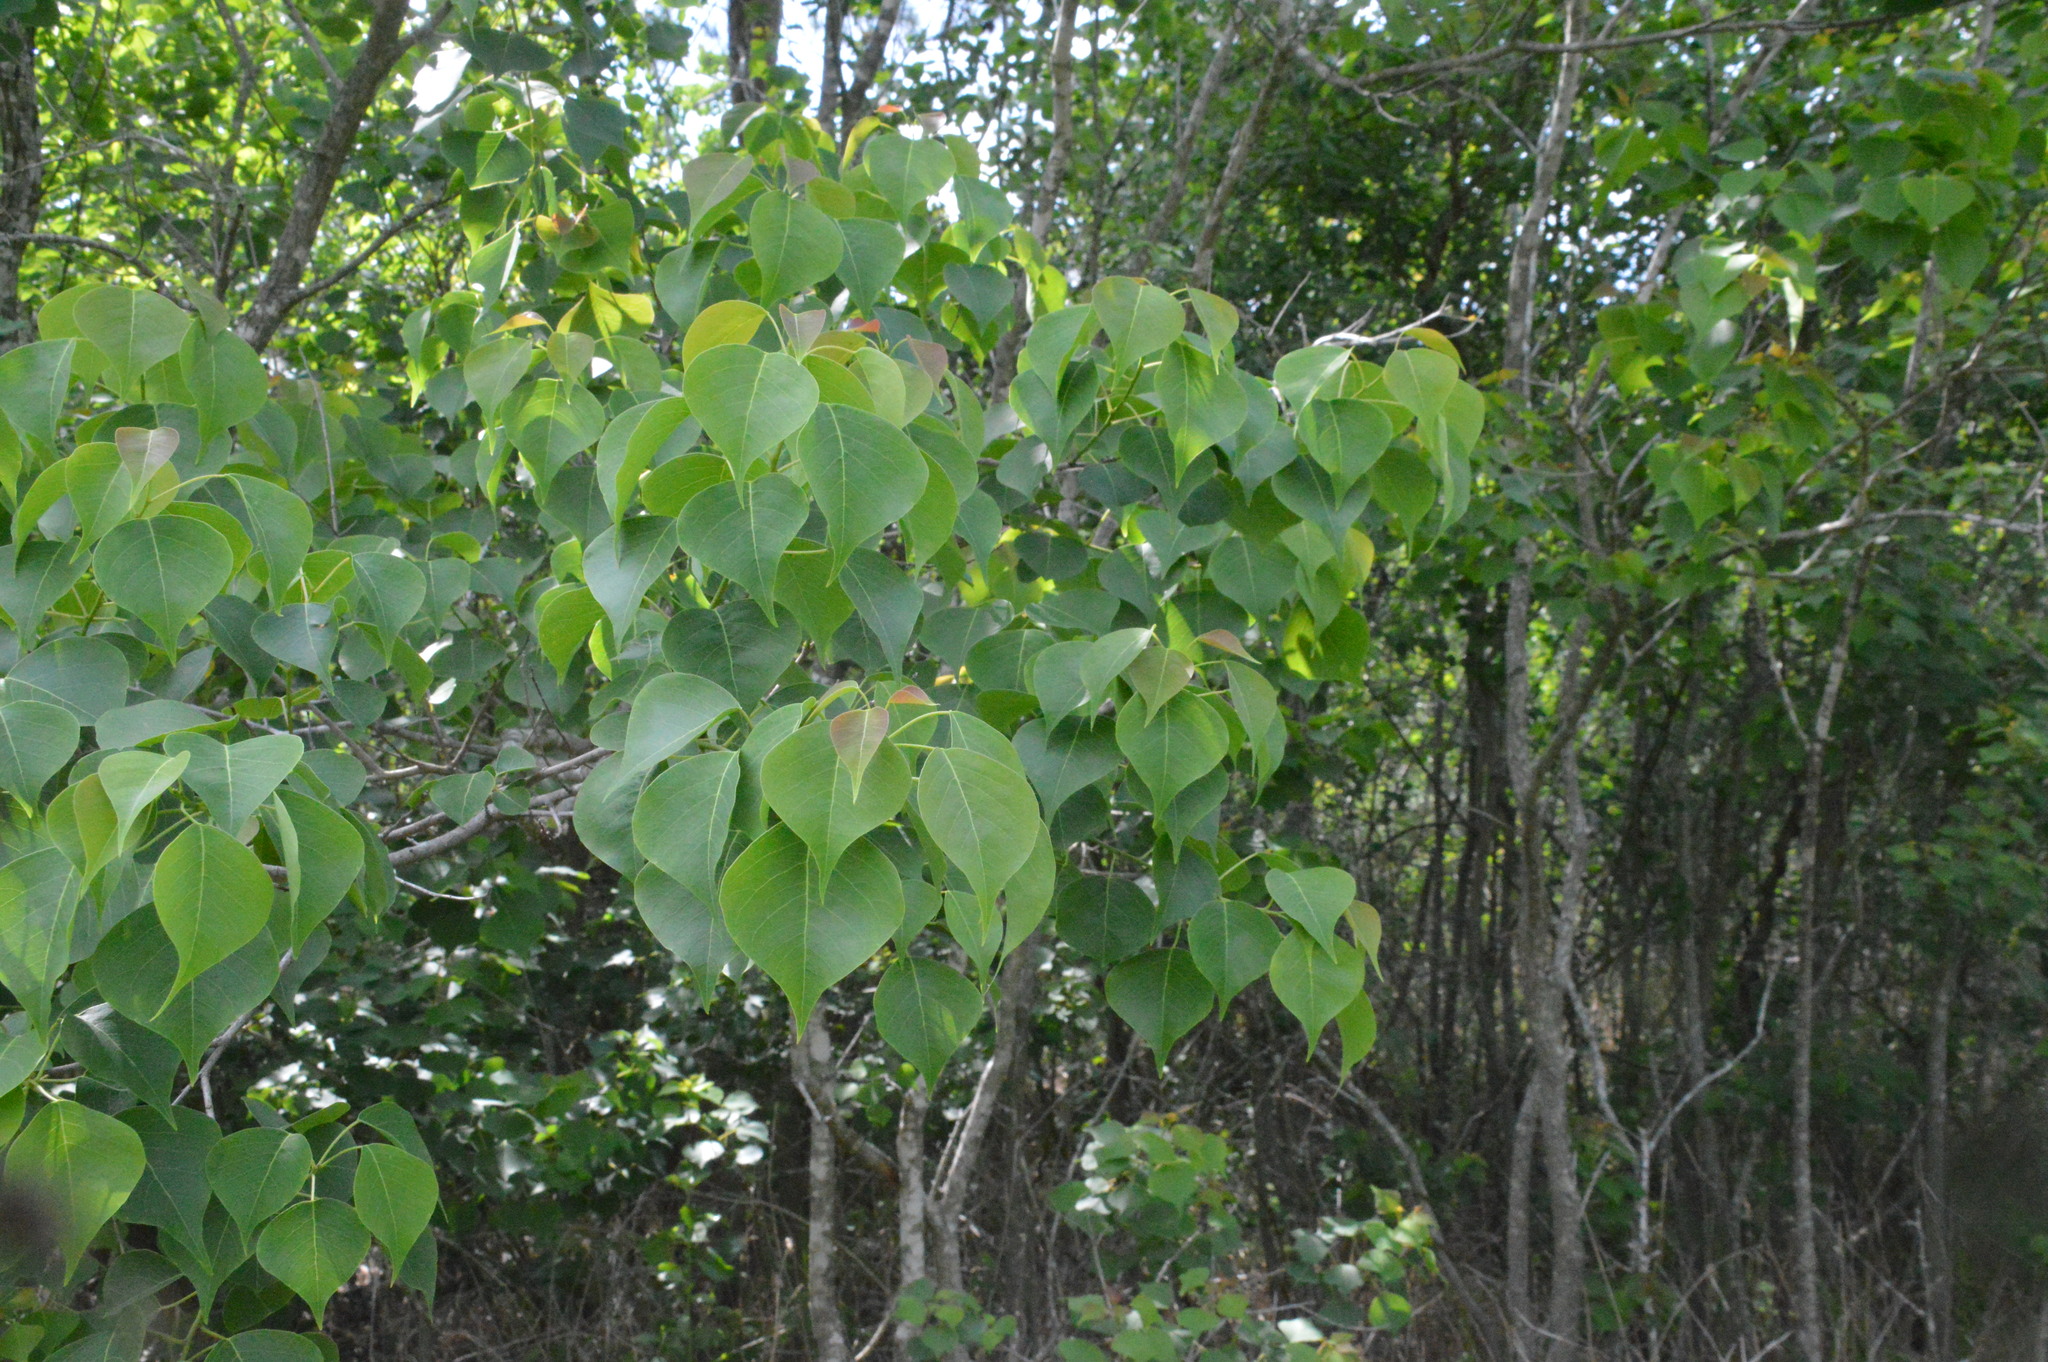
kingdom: Plantae
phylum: Tracheophyta
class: Magnoliopsida
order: Malpighiales
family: Euphorbiaceae
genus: Triadica
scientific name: Triadica sebifera
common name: Chinese tallow
